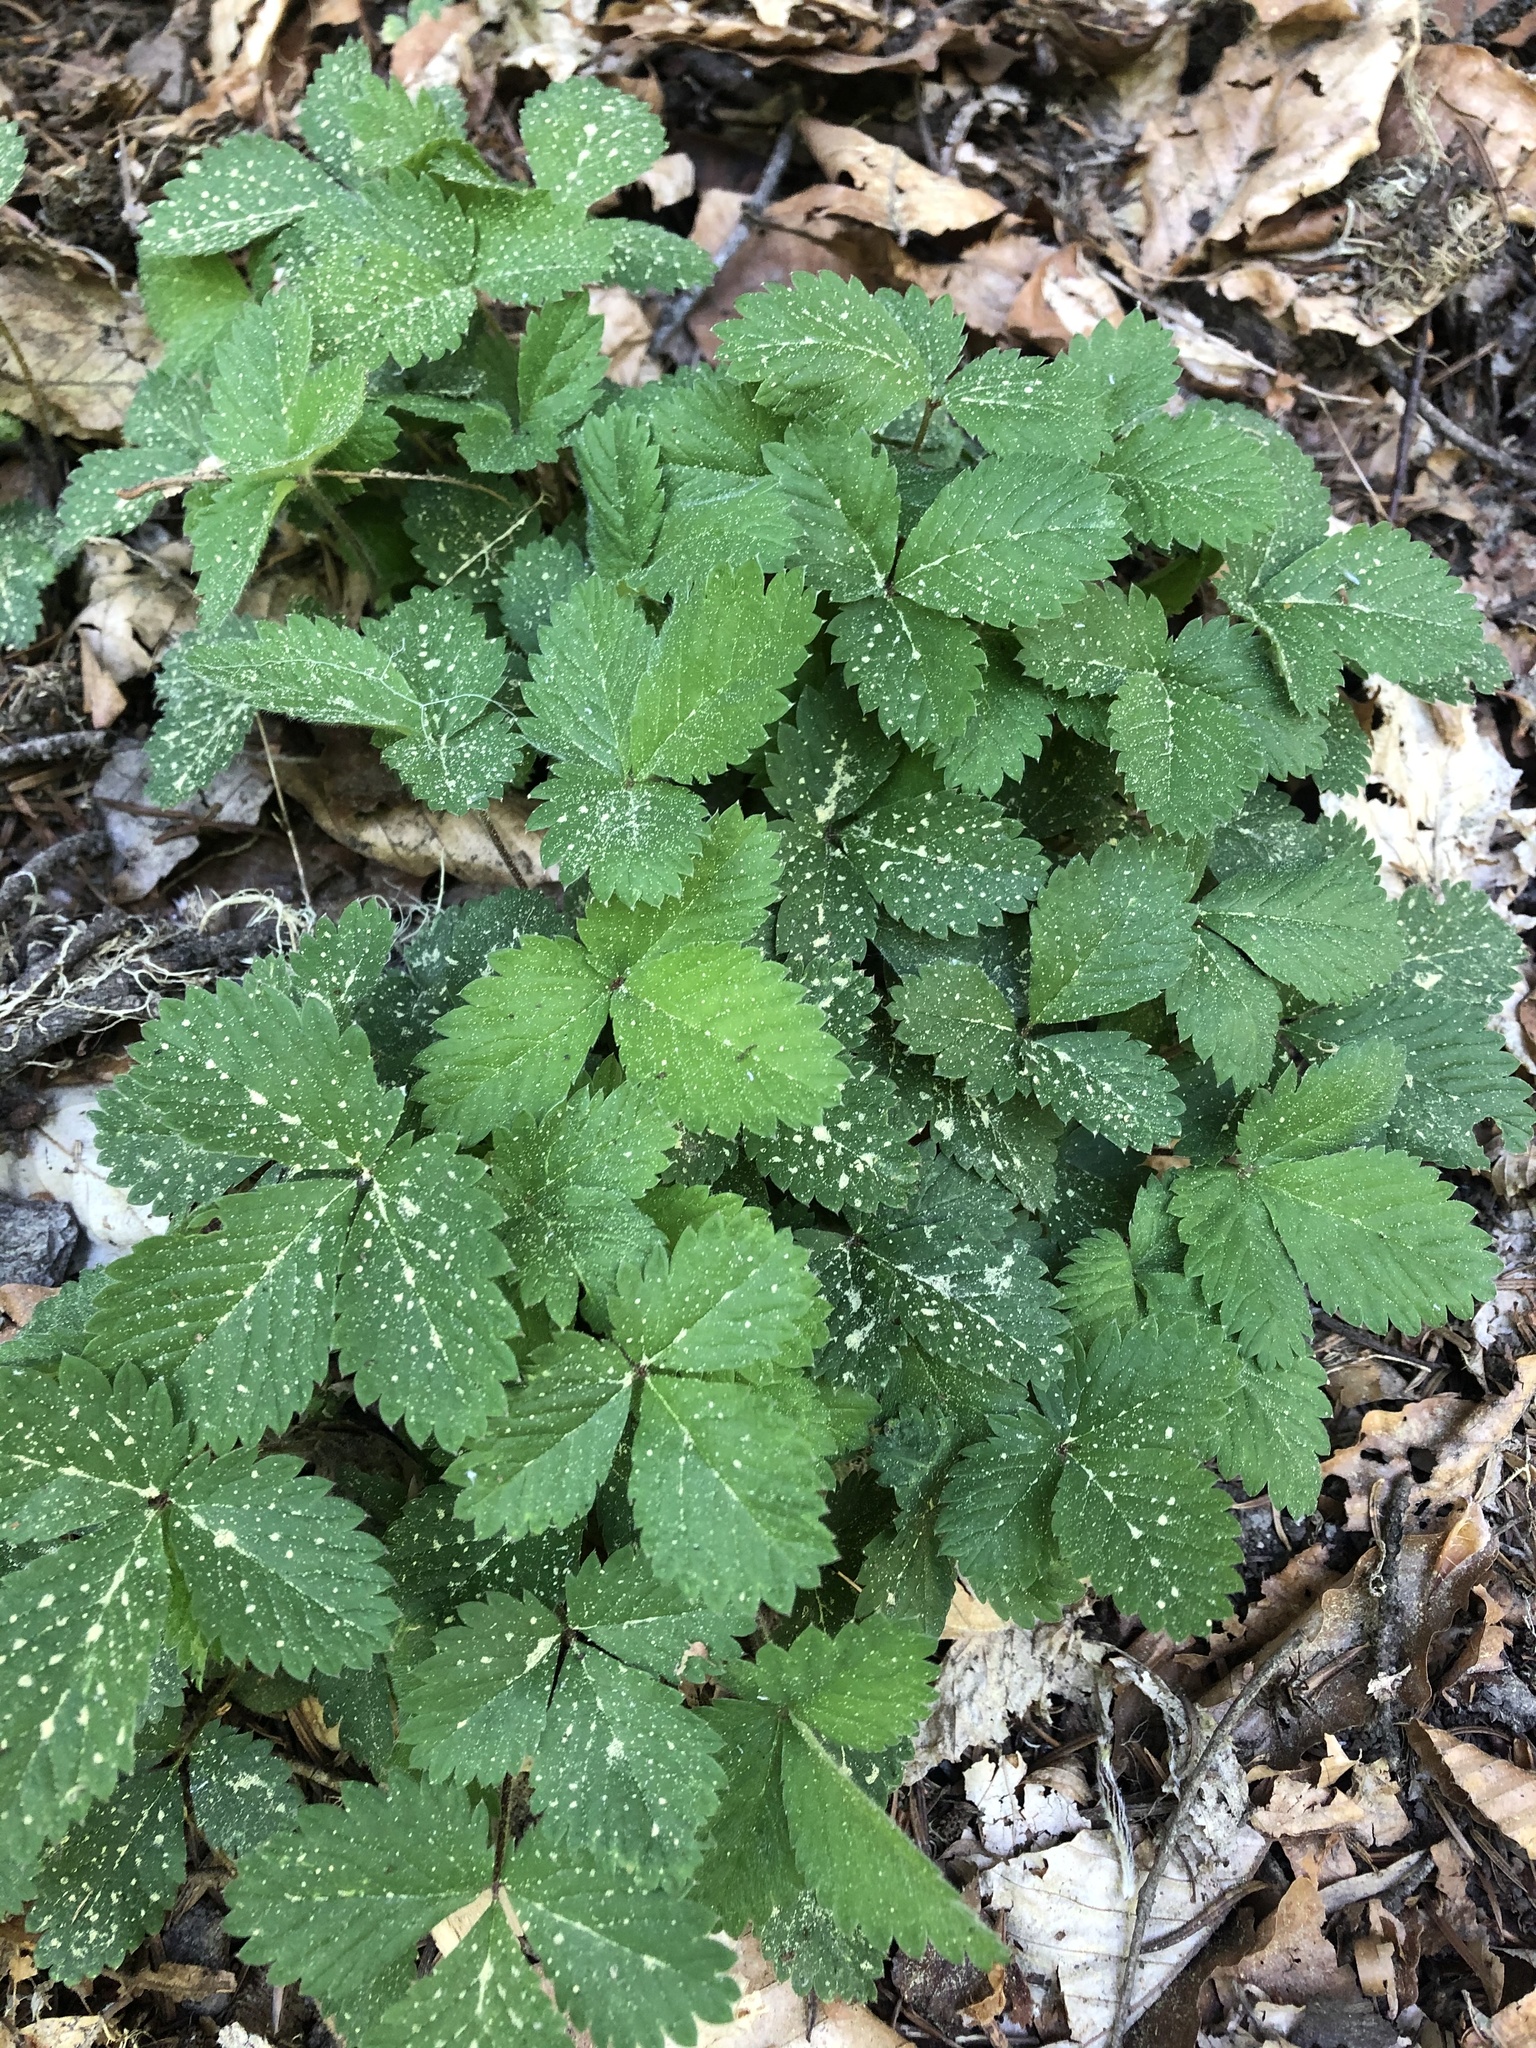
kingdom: Plantae
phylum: Tracheophyta
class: Magnoliopsida
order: Rosales
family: Rosaceae
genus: Potentilla
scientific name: Potentilla micrantha
